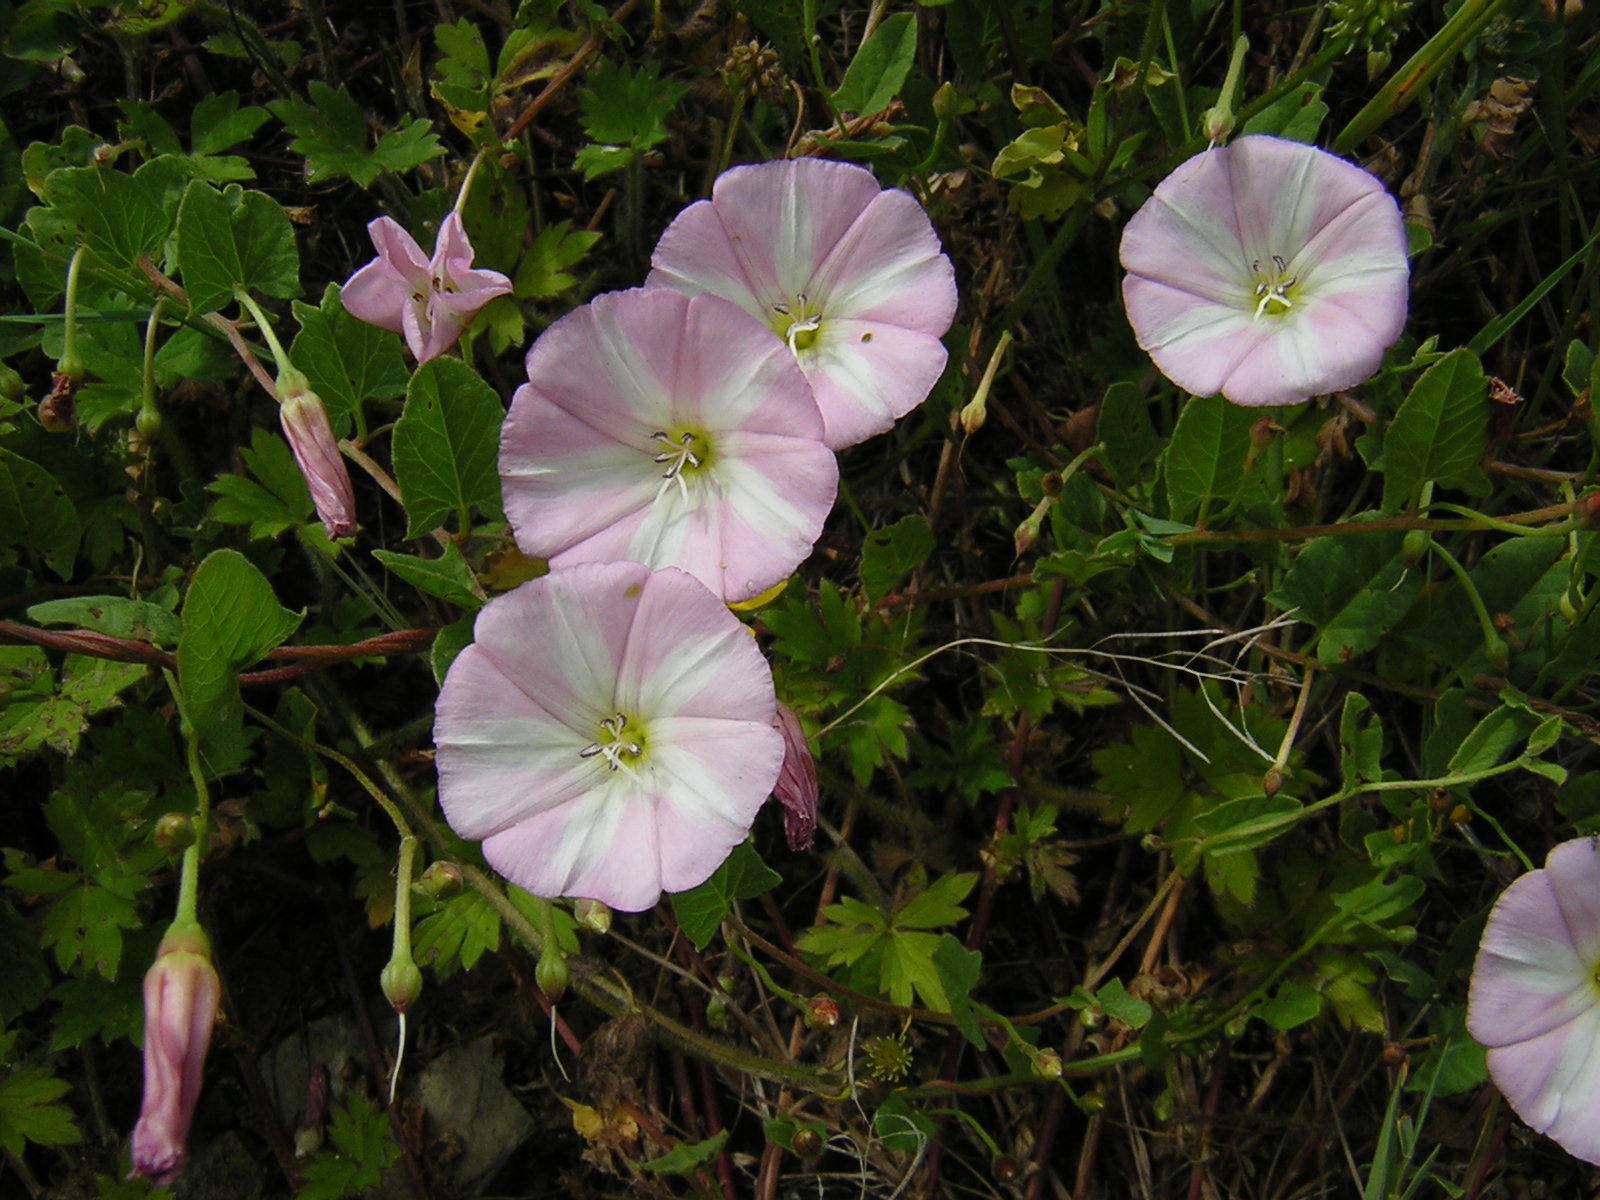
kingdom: Plantae
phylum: Tracheophyta
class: Magnoliopsida
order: Solanales
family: Convolvulaceae
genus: Convolvulus
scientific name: Convolvulus arvensis
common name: Field bindweed
